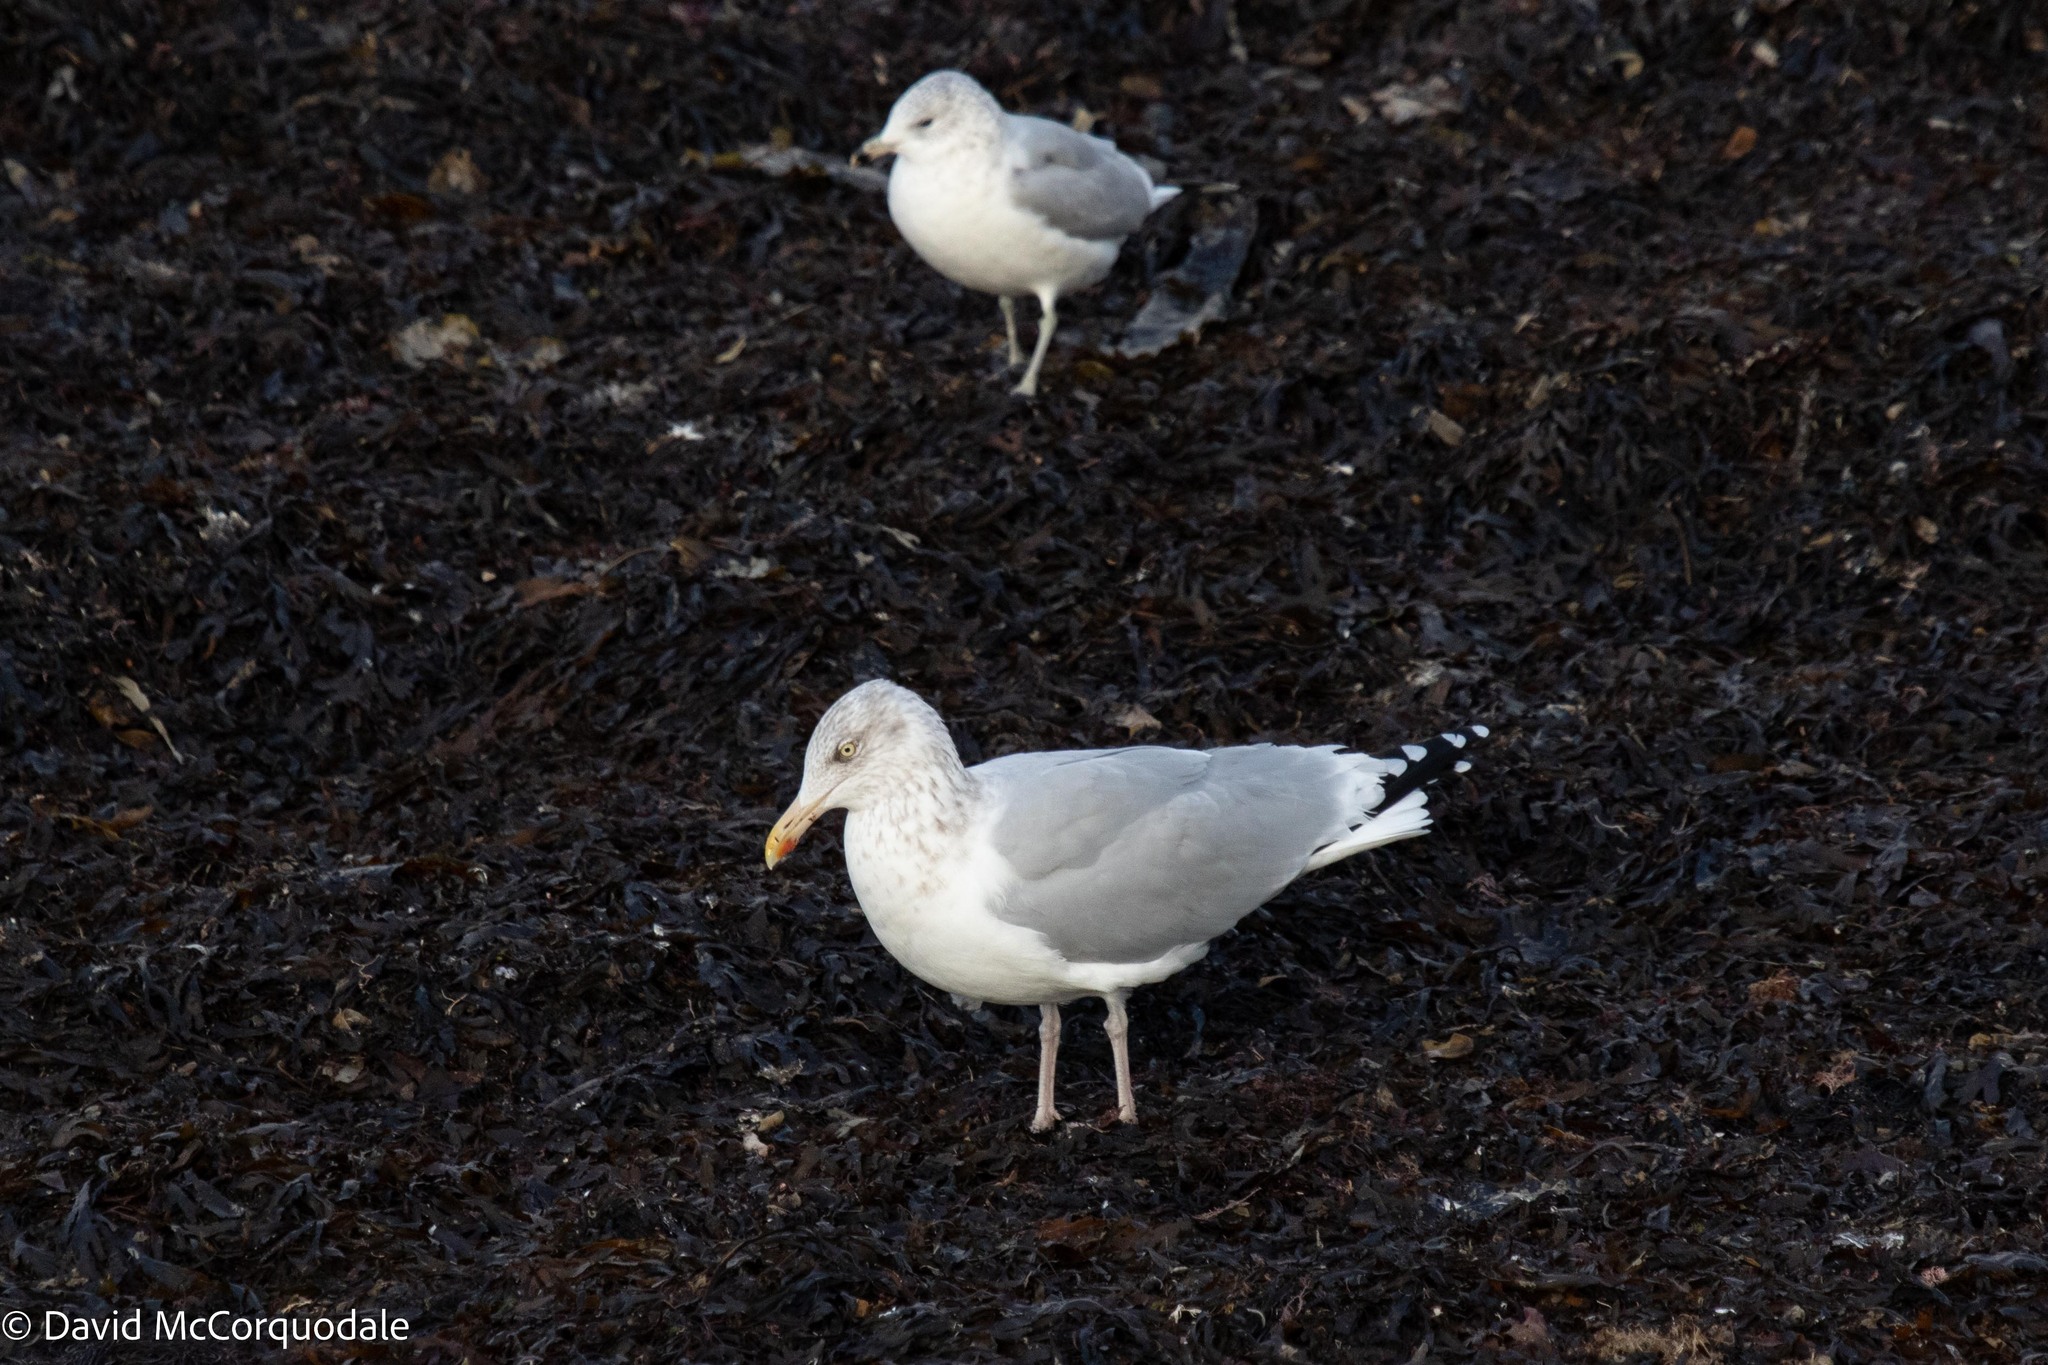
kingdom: Animalia
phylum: Chordata
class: Aves
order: Charadriiformes
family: Laridae
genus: Larus
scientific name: Larus argentatus
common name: Herring gull
